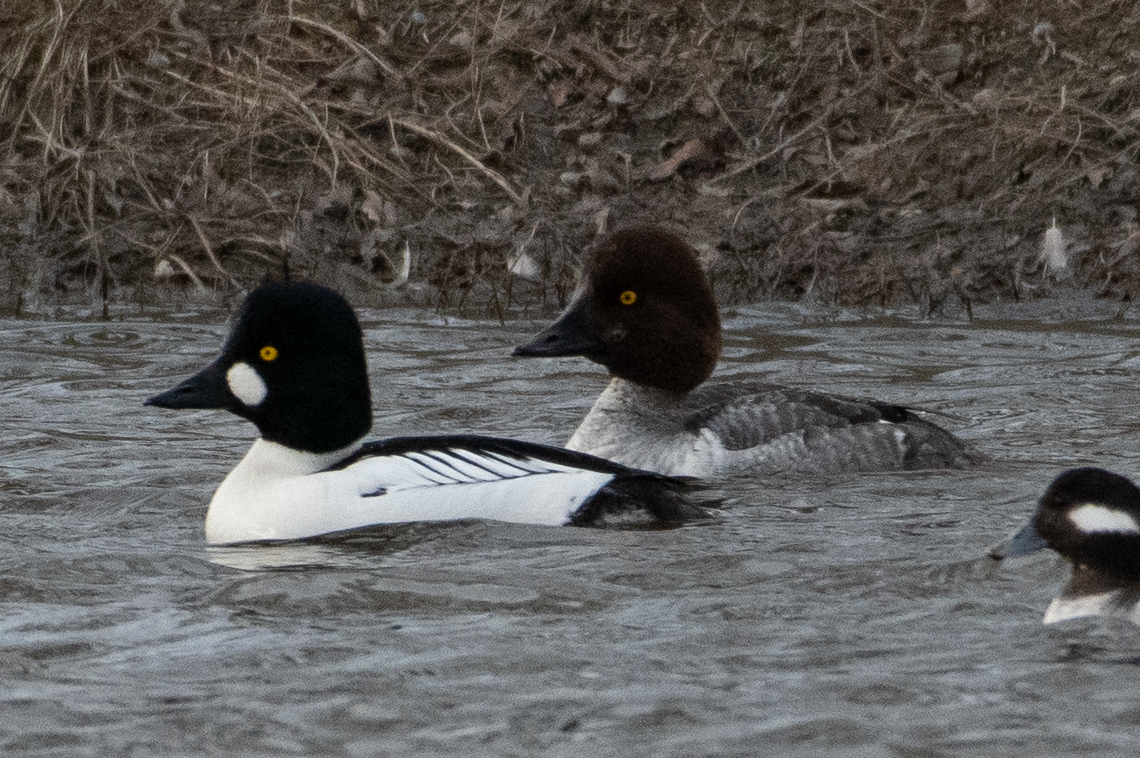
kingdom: Animalia
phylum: Chordata
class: Aves
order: Anseriformes
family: Anatidae
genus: Bucephala
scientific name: Bucephala clangula
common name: Common goldeneye
